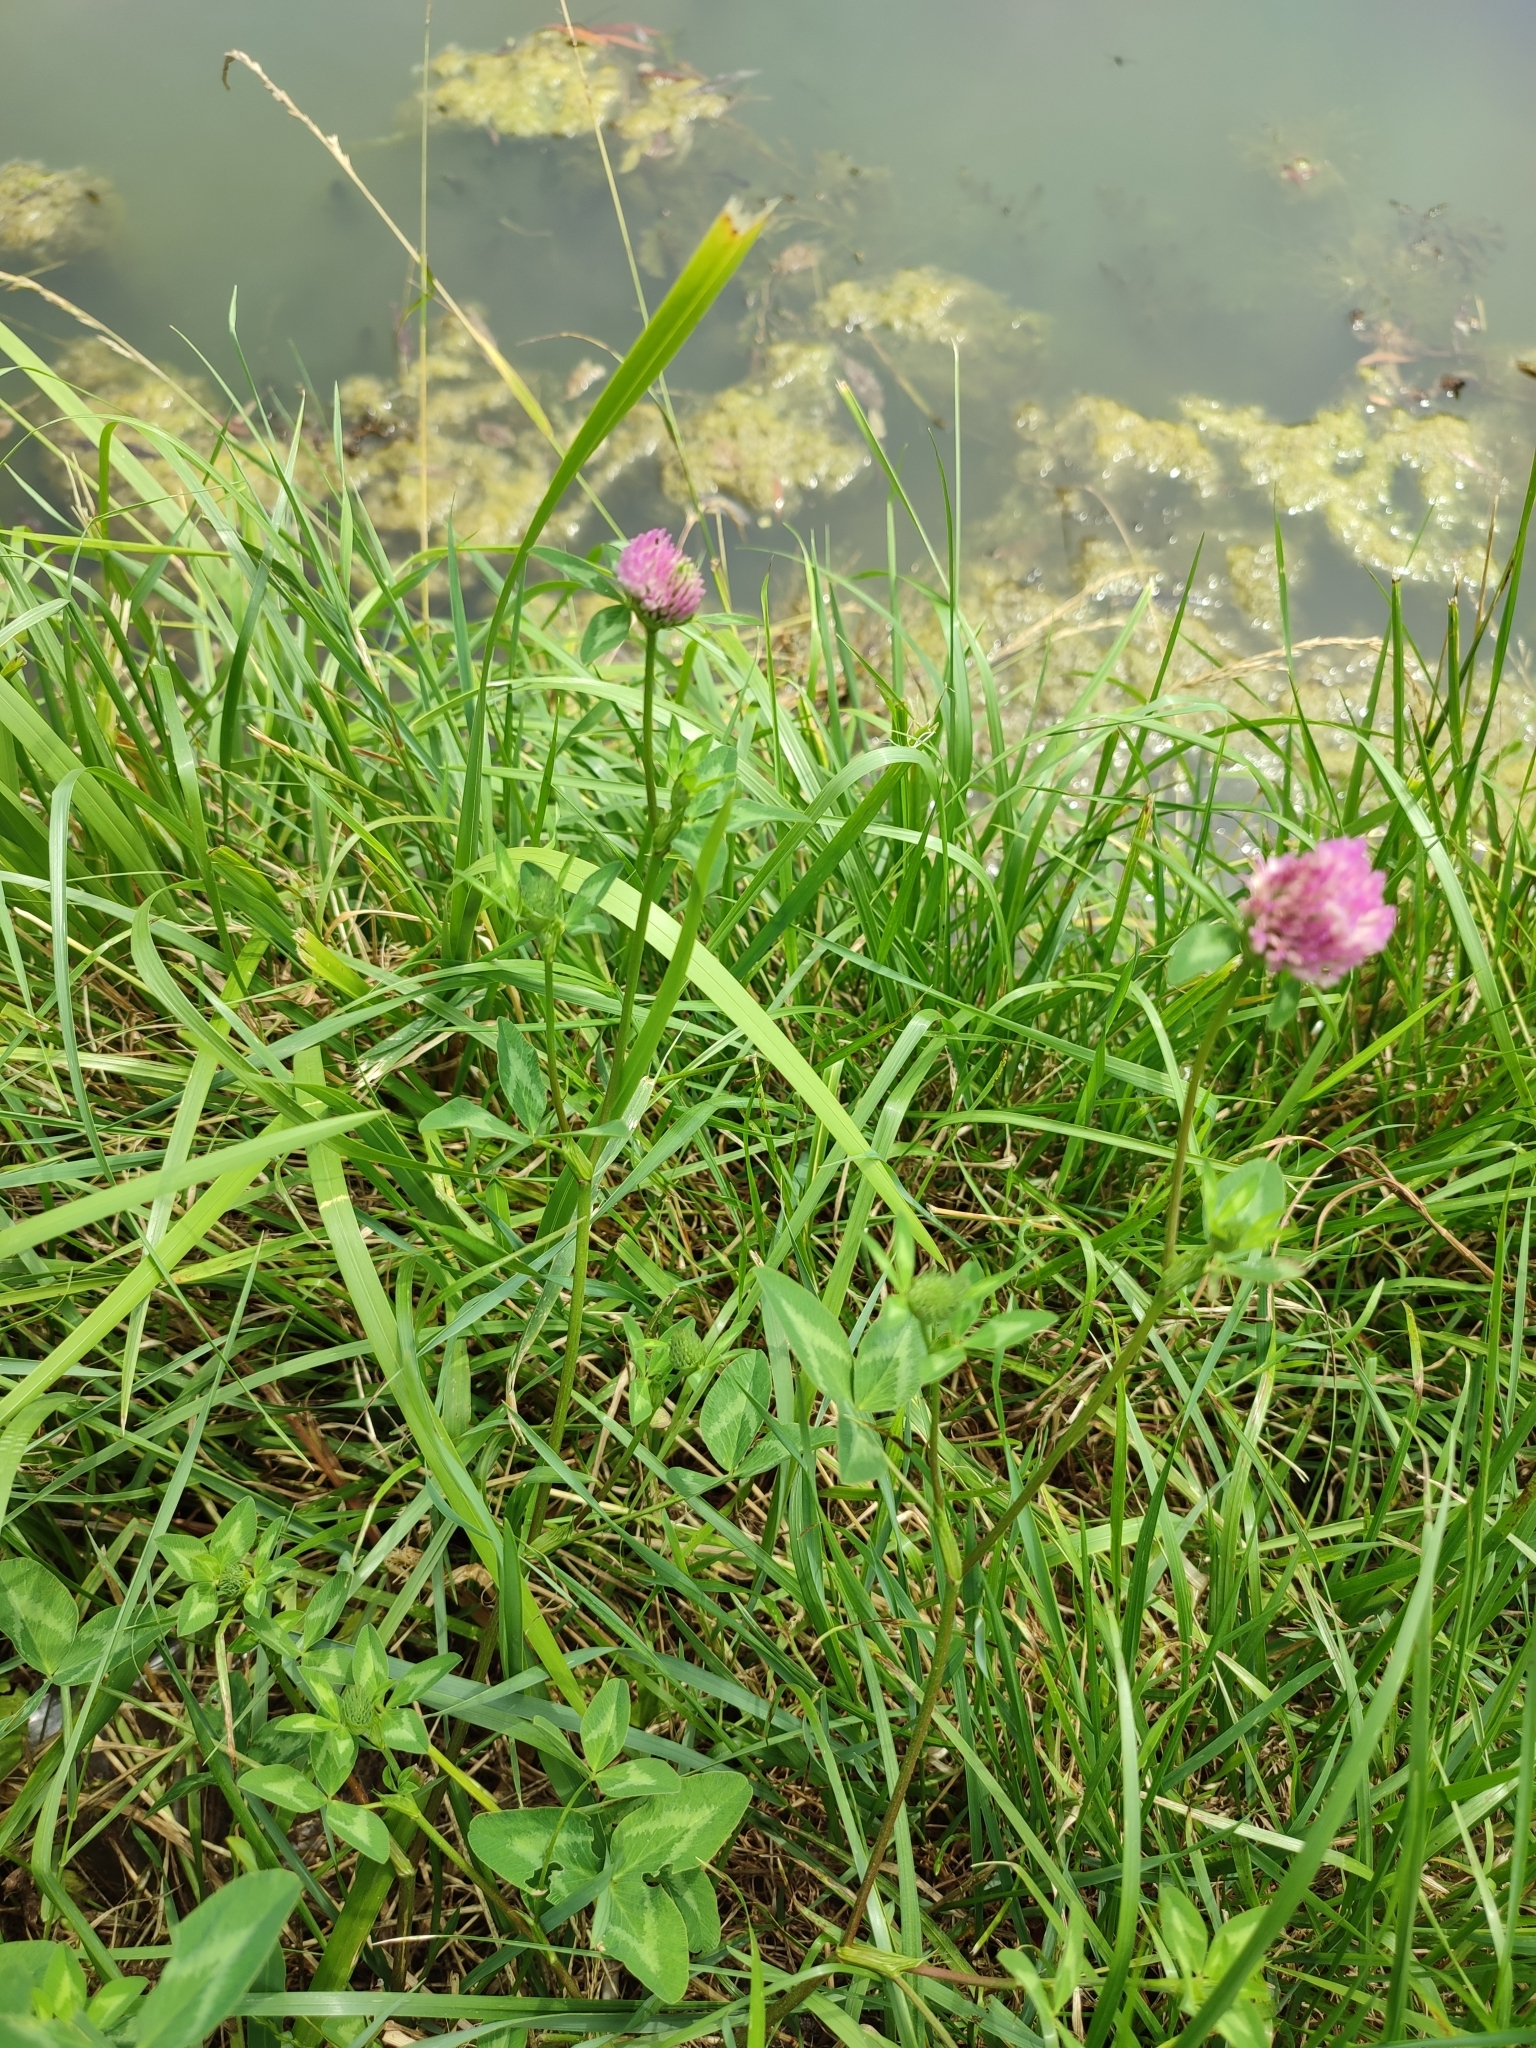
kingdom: Plantae
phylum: Tracheophyta
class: Magnoliopsida
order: Fabales
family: Fabaceae
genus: Trifolium
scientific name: Trifolium pratense
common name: Red clover
